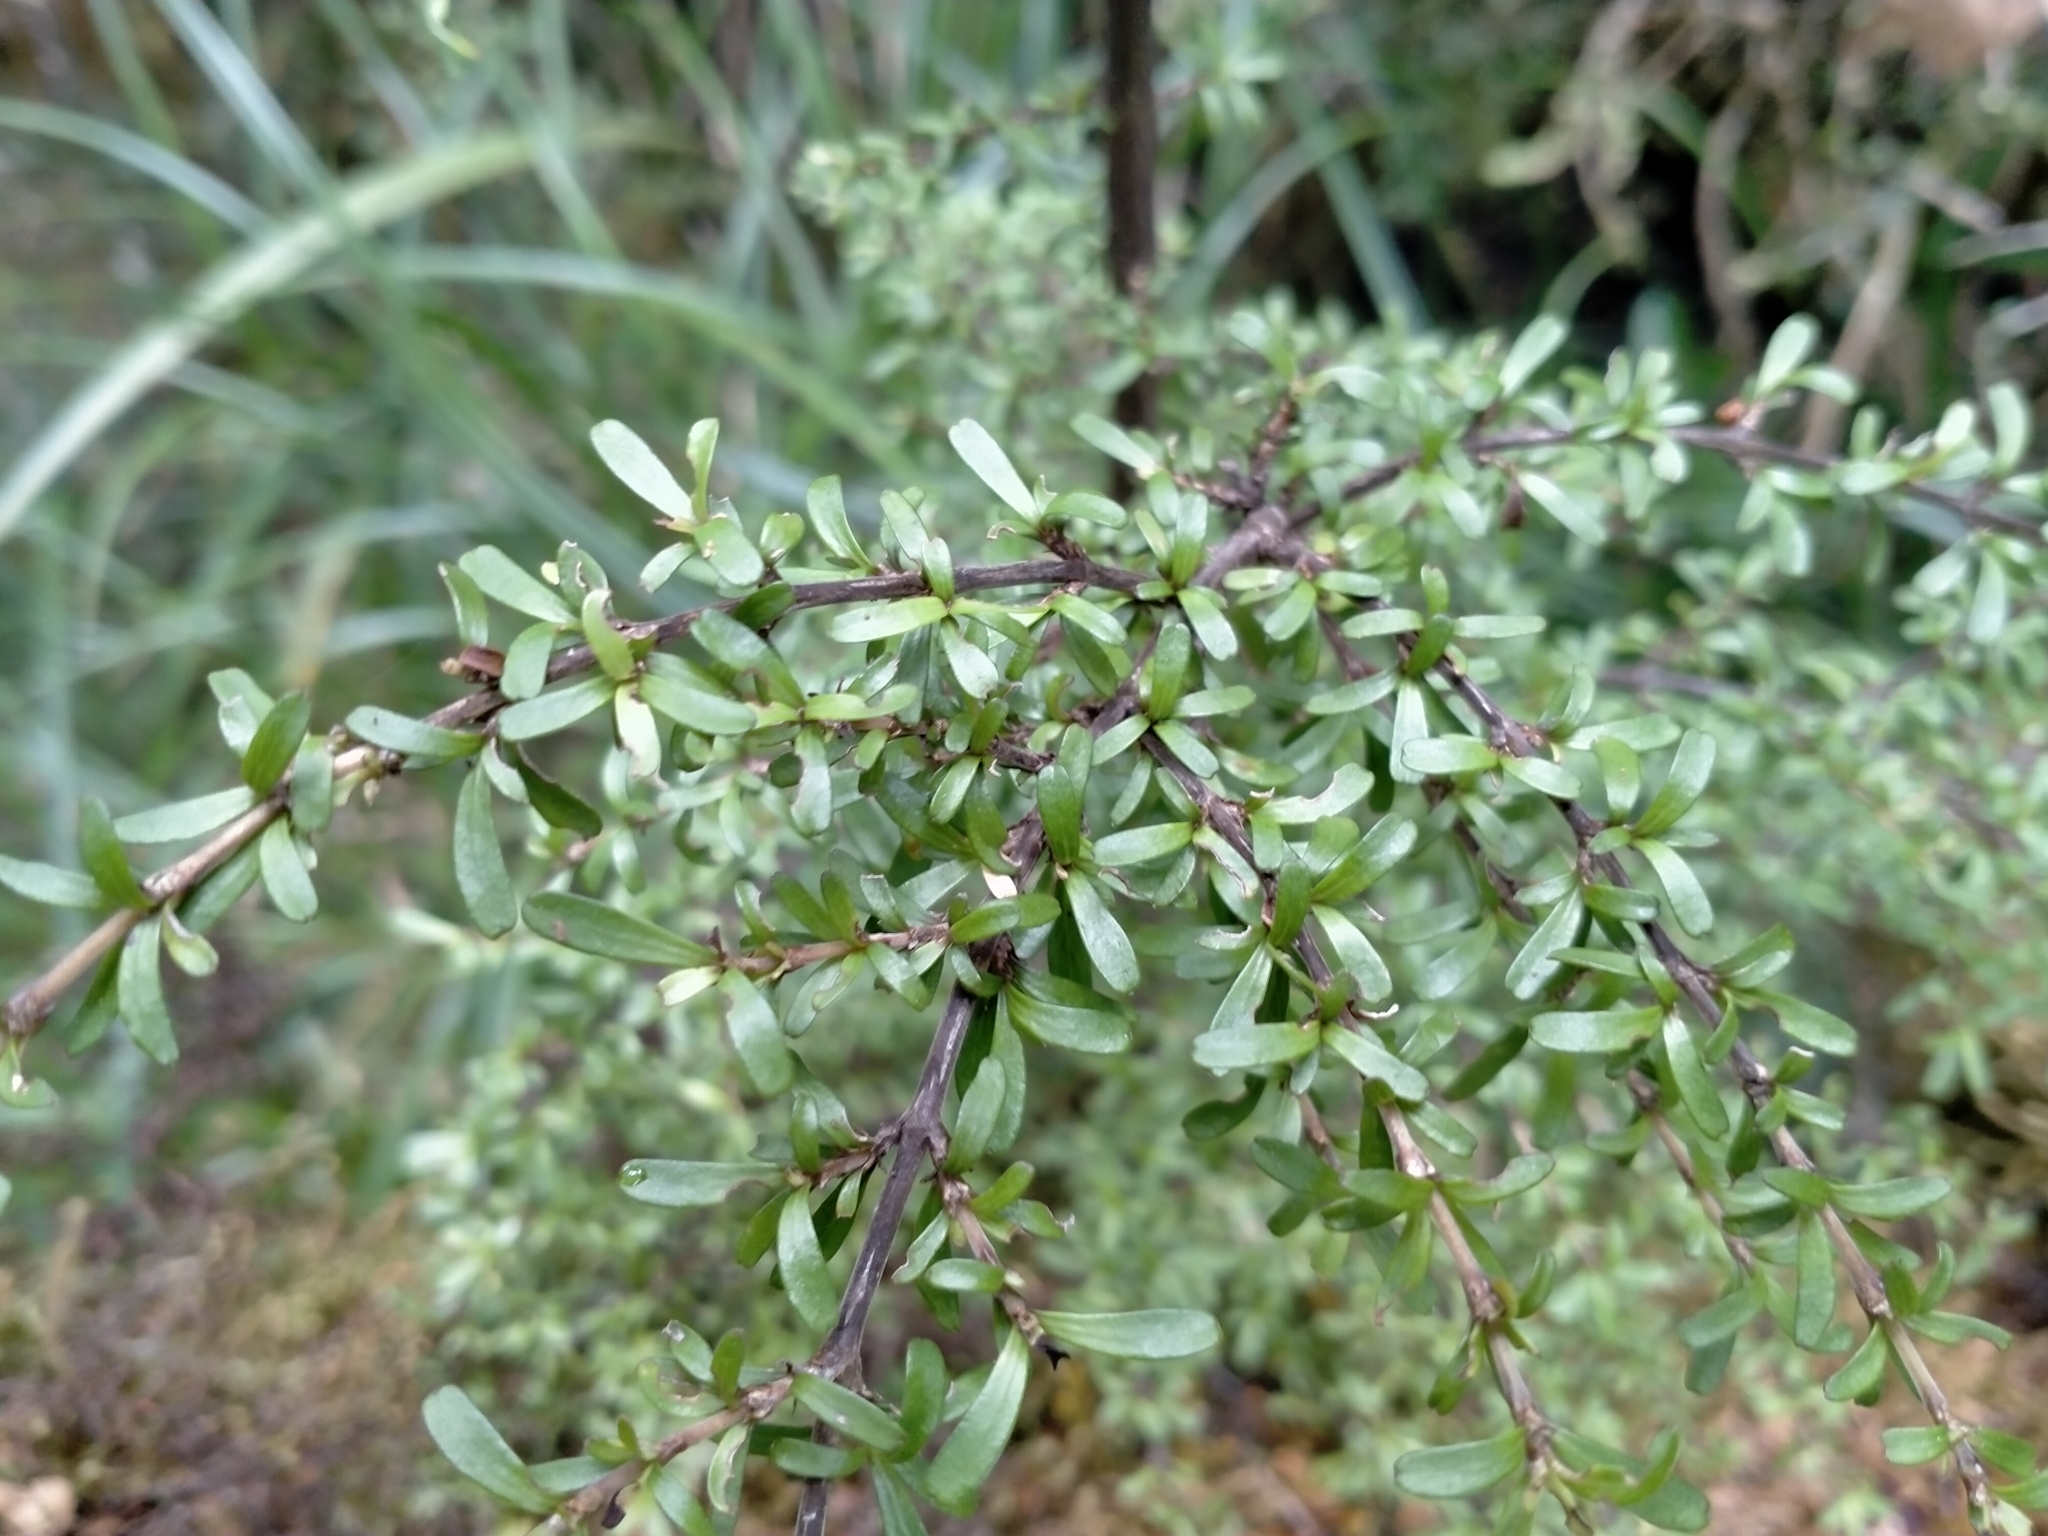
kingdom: Plantae
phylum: Tracheophyta
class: Magnoliopsida
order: Gentianales
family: Rubiaceae
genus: Coprosma
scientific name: Coprosma cuneata
